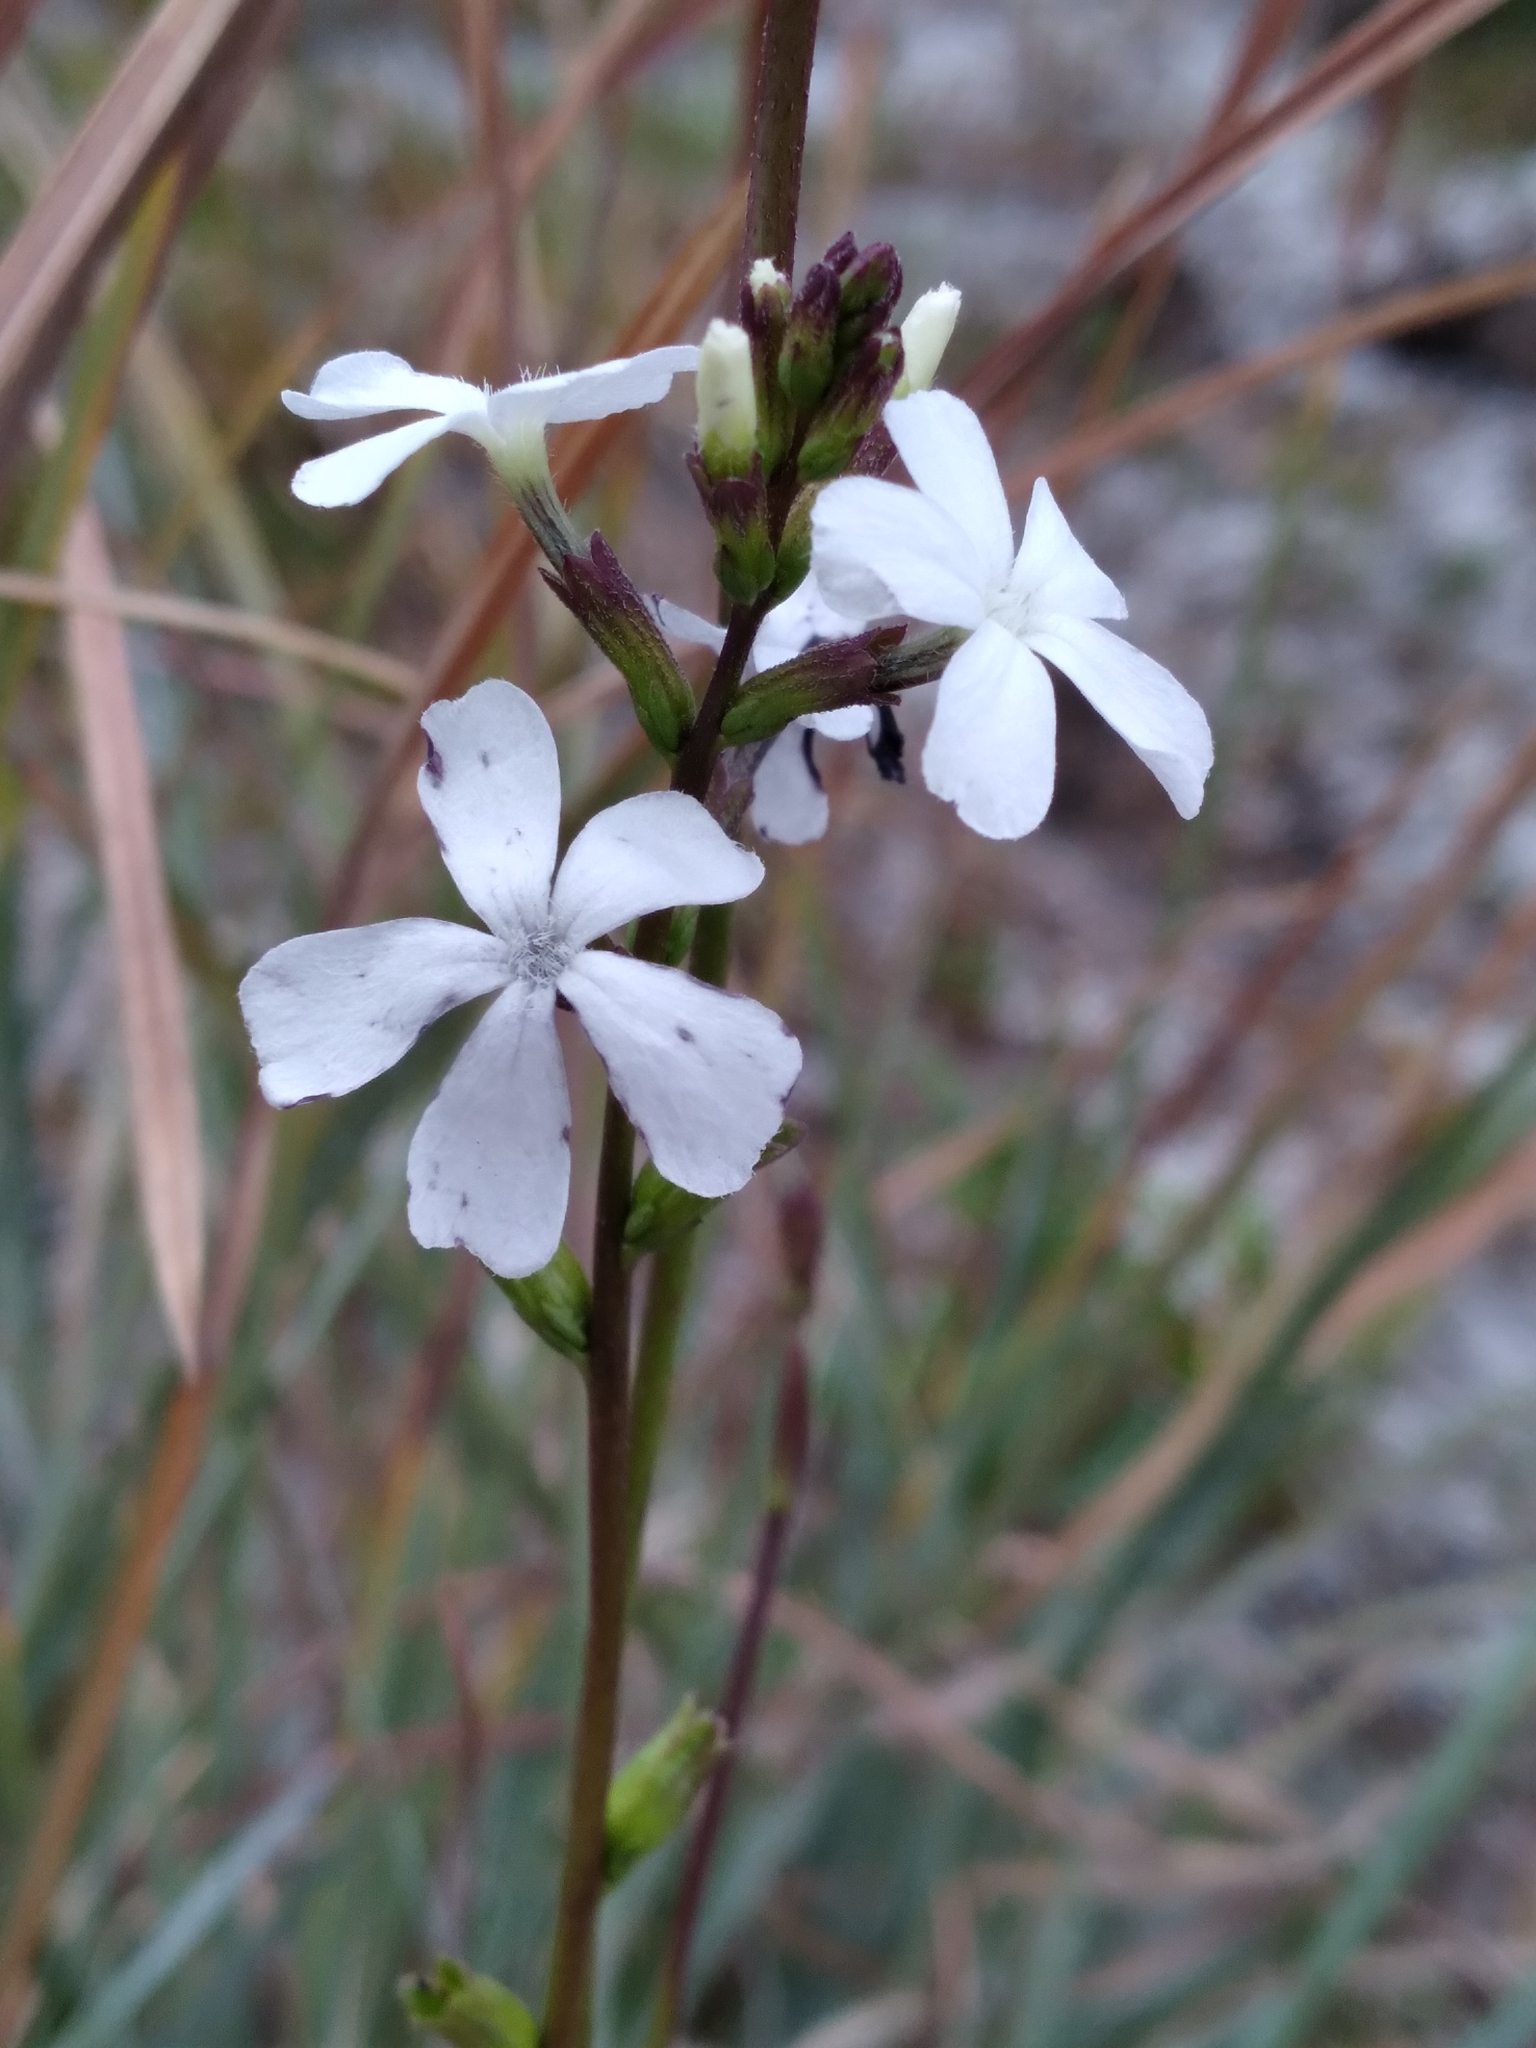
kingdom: Plantae
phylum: Tracheophyta
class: Magnoliopsida
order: Lamiales
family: Orobanchaceae
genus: Buchnera
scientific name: Buchnera floridana
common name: Florida bluehearts
